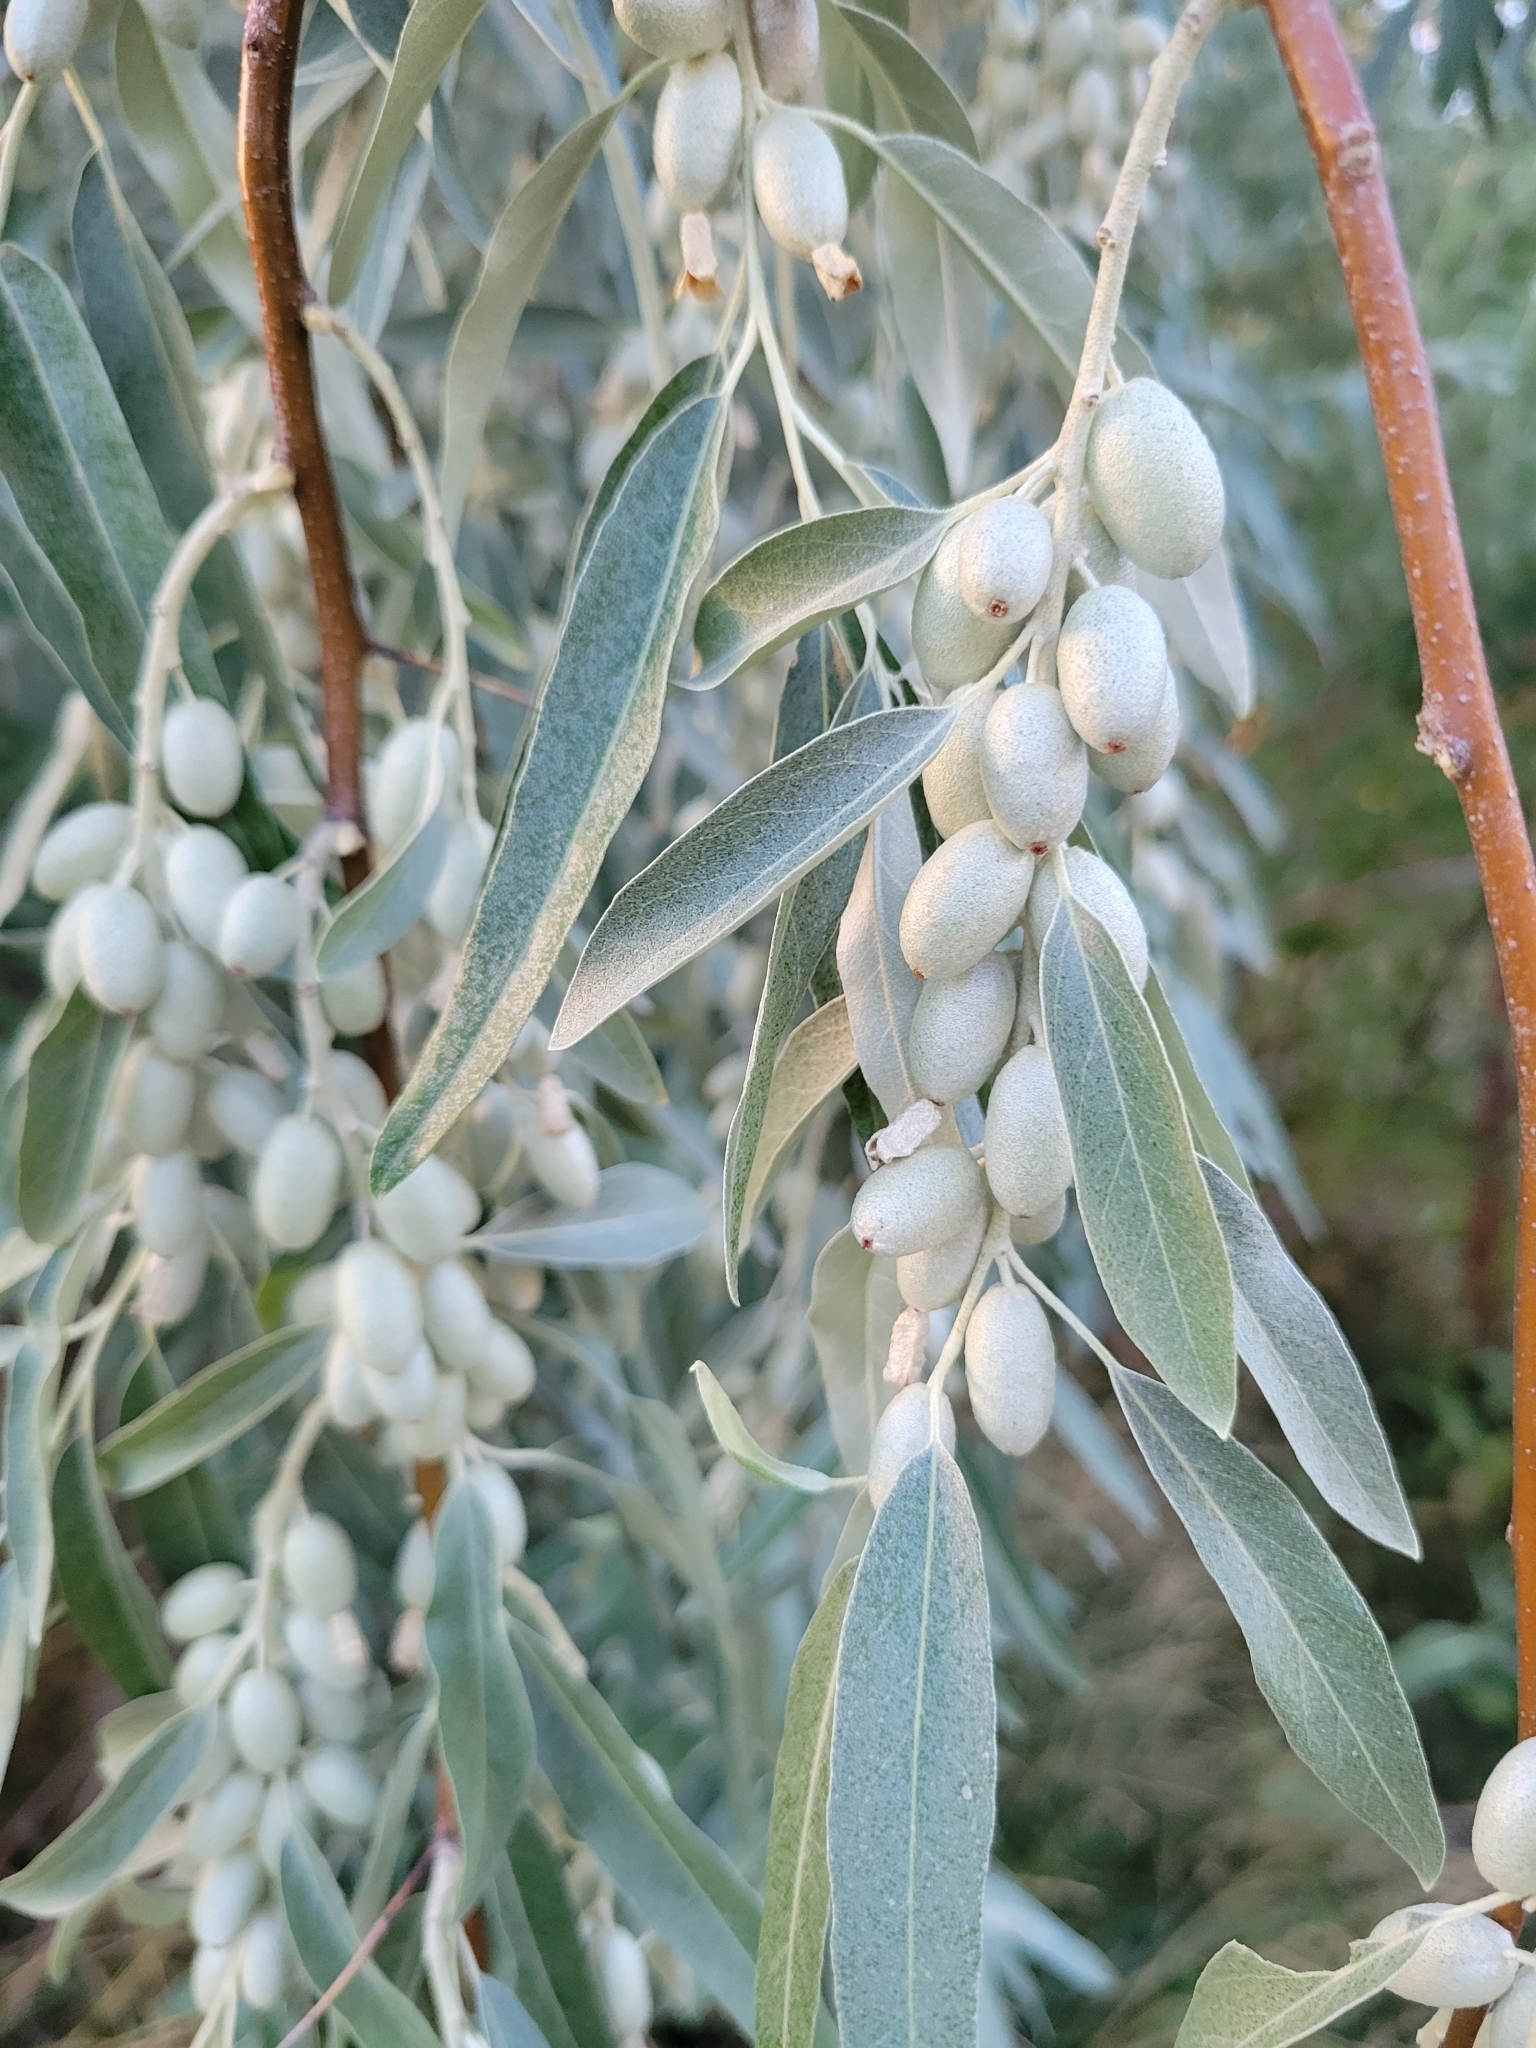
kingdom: Plantae
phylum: Tracheophyta
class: Magnoliopsida
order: Rosales
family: Elaeagnaceae
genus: Elaeagnus
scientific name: Elaeagnus angustifolia
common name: Russian olive
